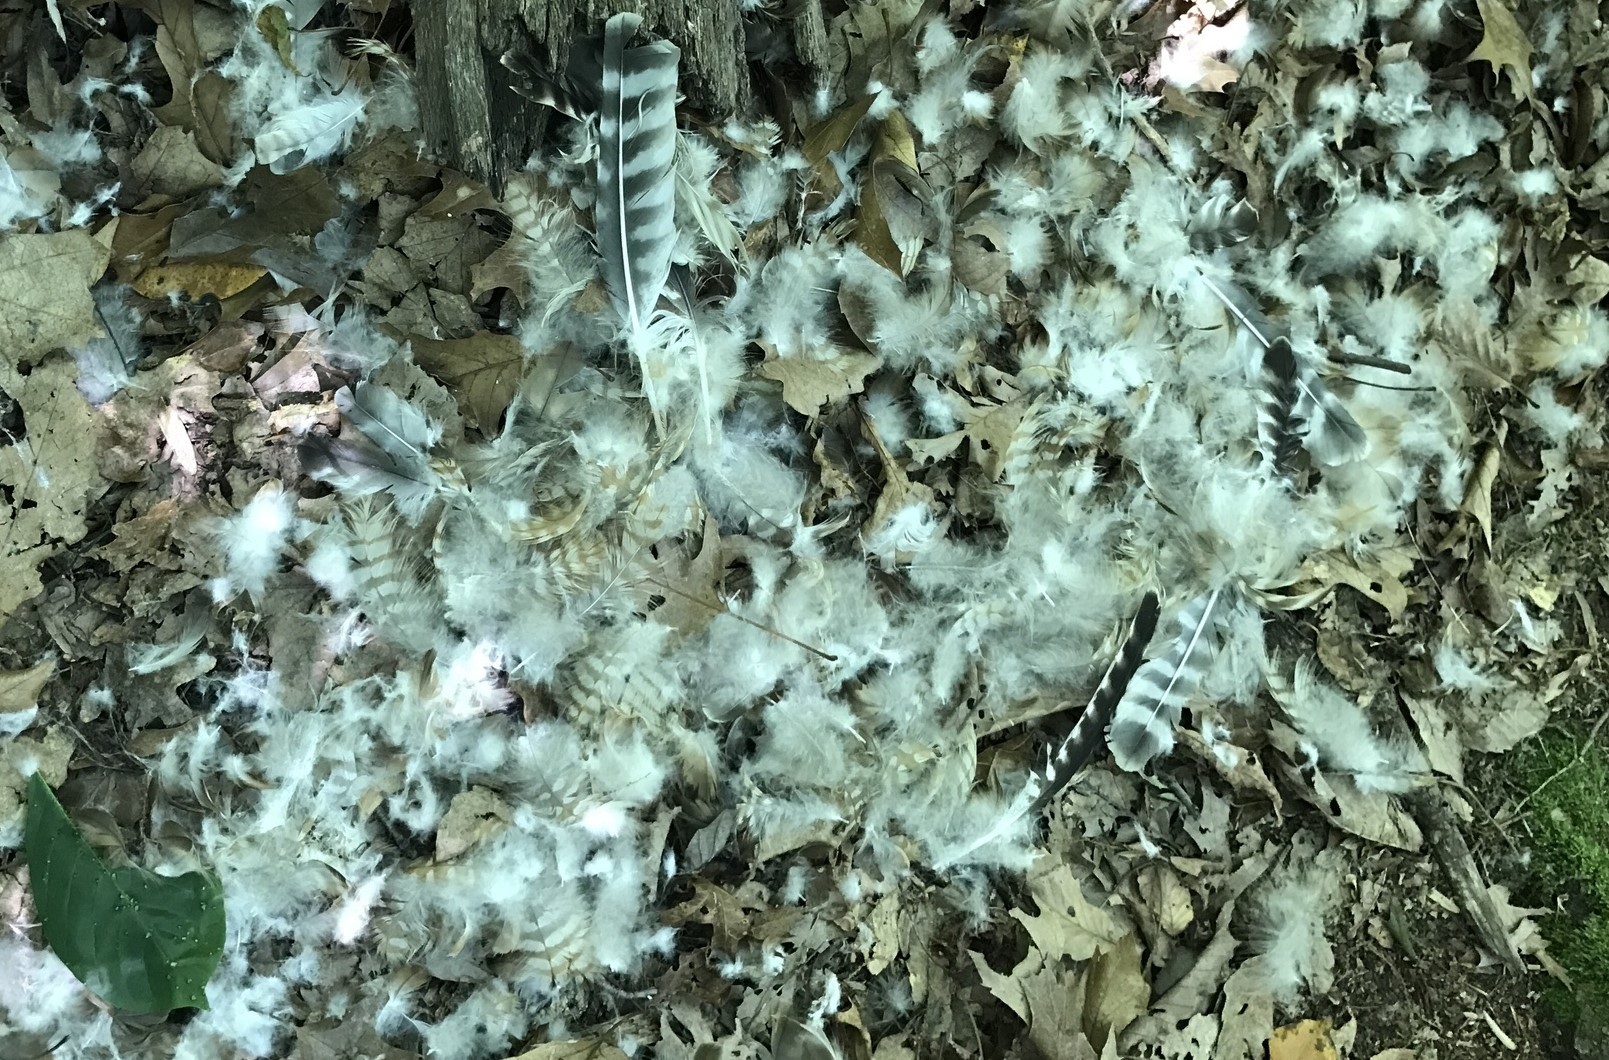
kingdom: Animalia
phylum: Chordata
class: Aves
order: Accipitriformes
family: Accipitridae
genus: Buteo
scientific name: Buteo lineatus
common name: Red-shouldered hawk
